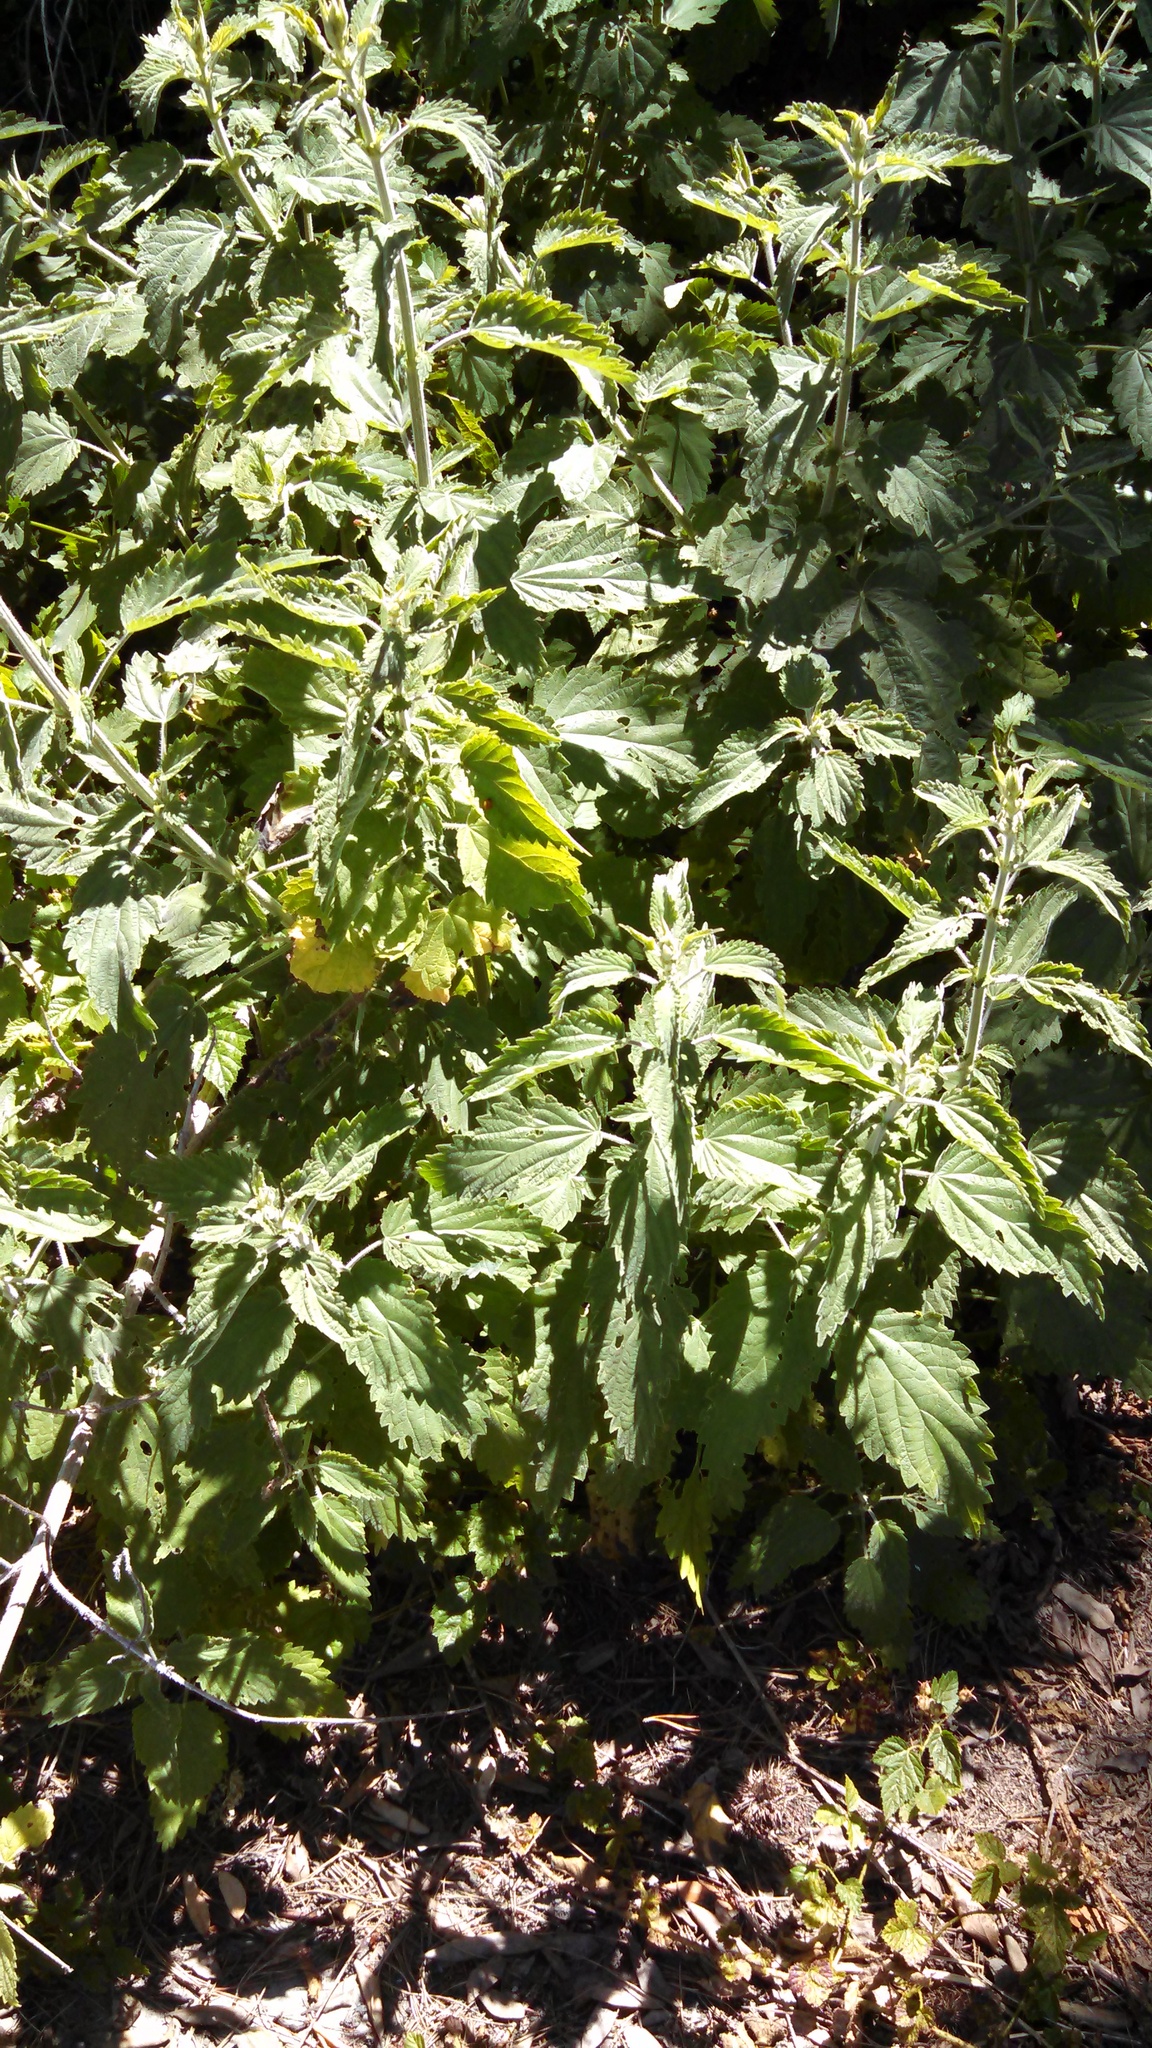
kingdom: Plantae
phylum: Tracheophyta
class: Magnoliopsida
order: Rosales
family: Urticaceae
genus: Urtica
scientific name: Urtica dioica
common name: Common nettle
